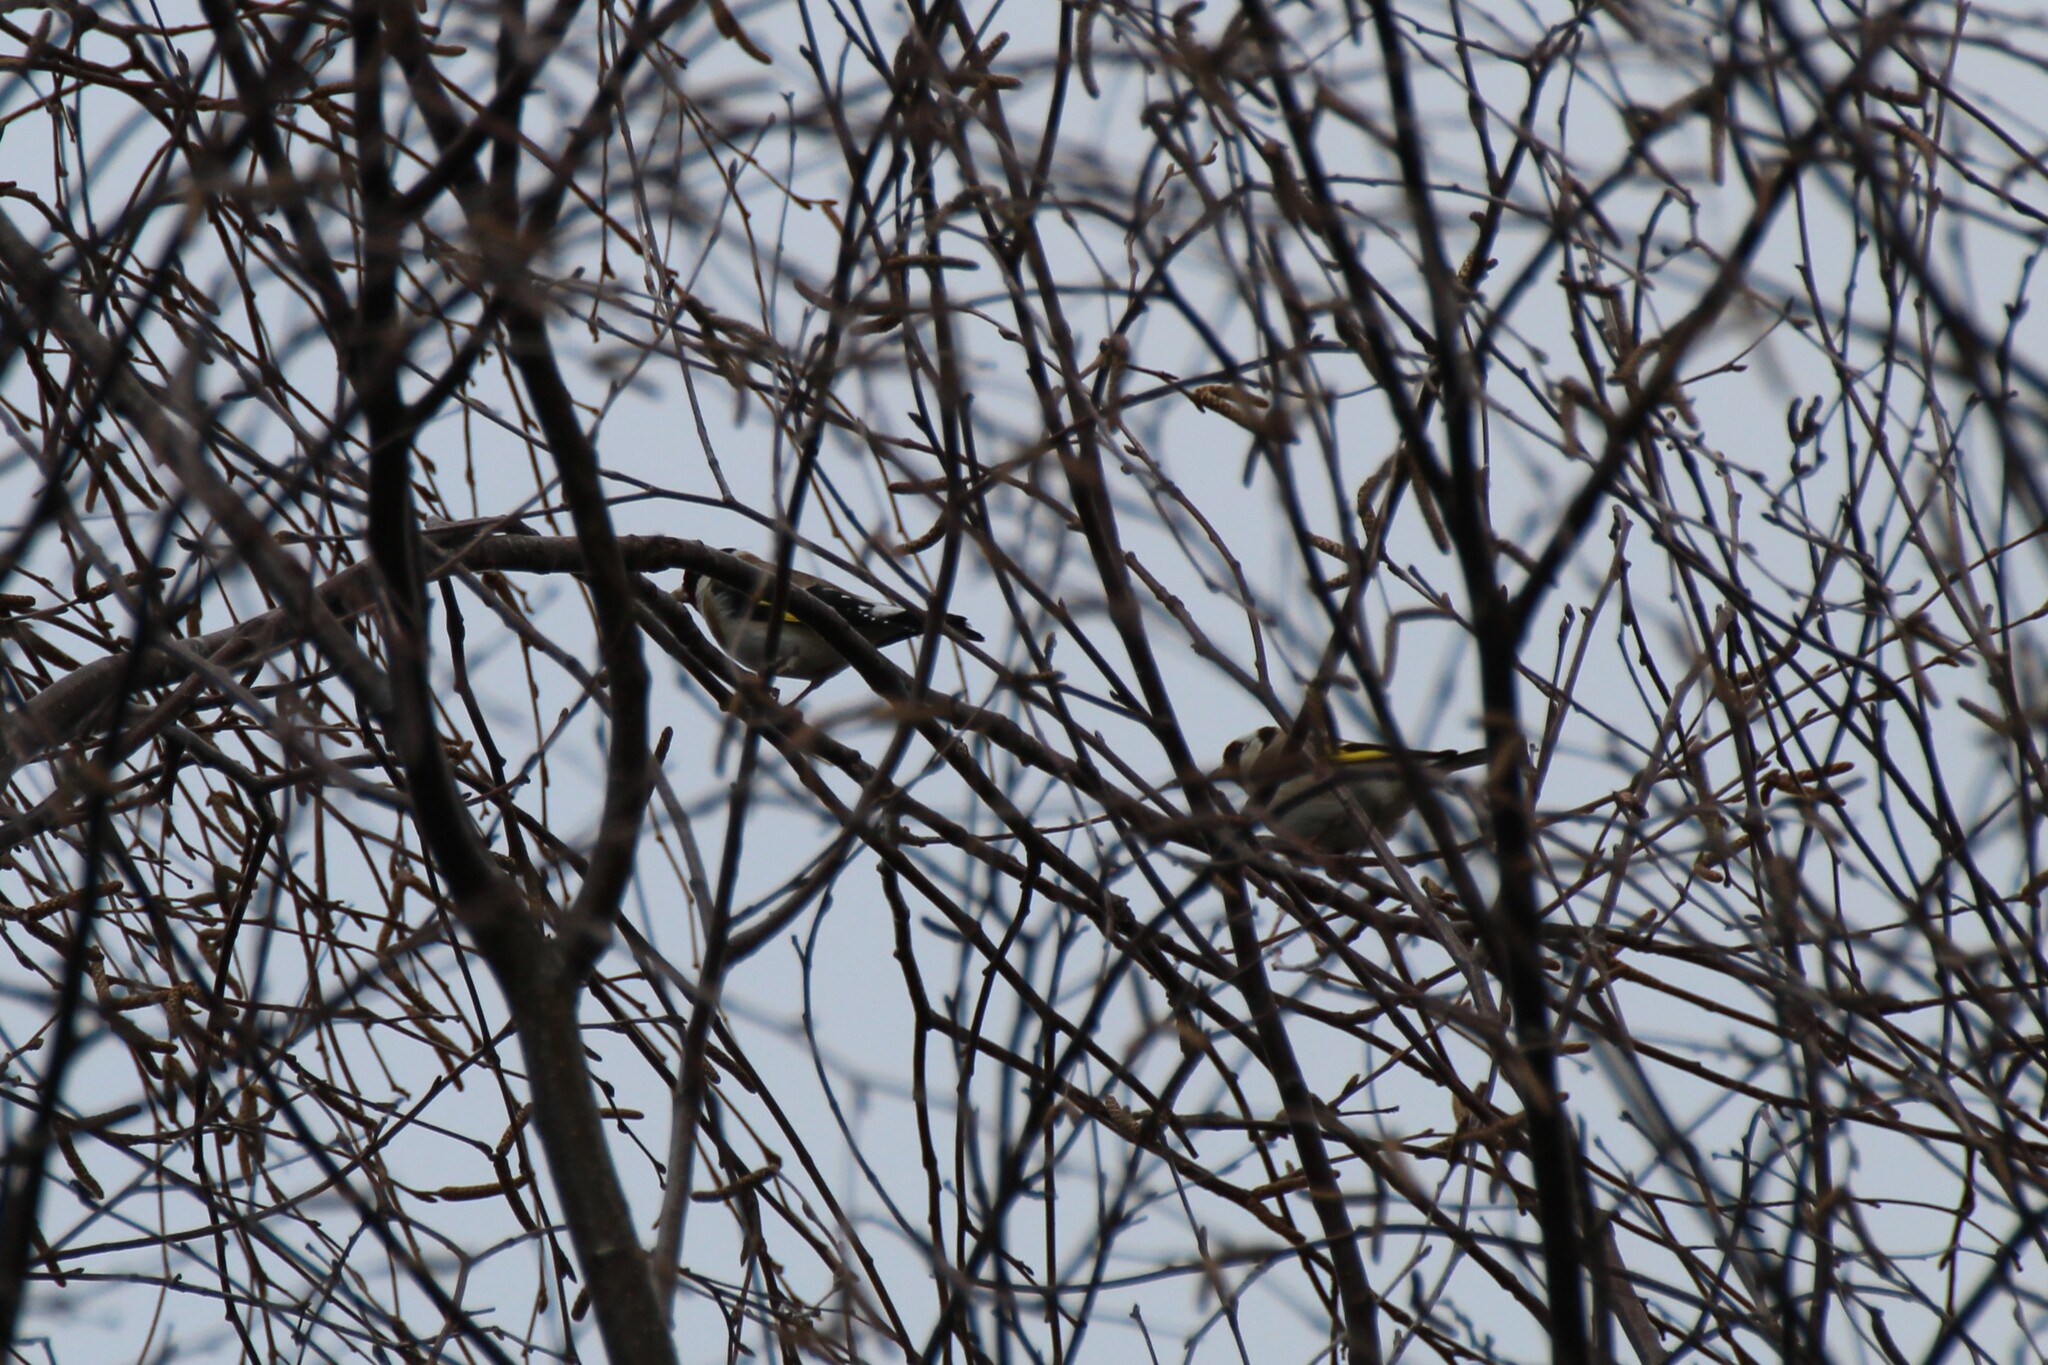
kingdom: Animalia
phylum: Chordata
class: Aves
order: Passeriformes
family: Fringillidae
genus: Carduelis
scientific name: Carduelis carduelis
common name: European goldfinch
